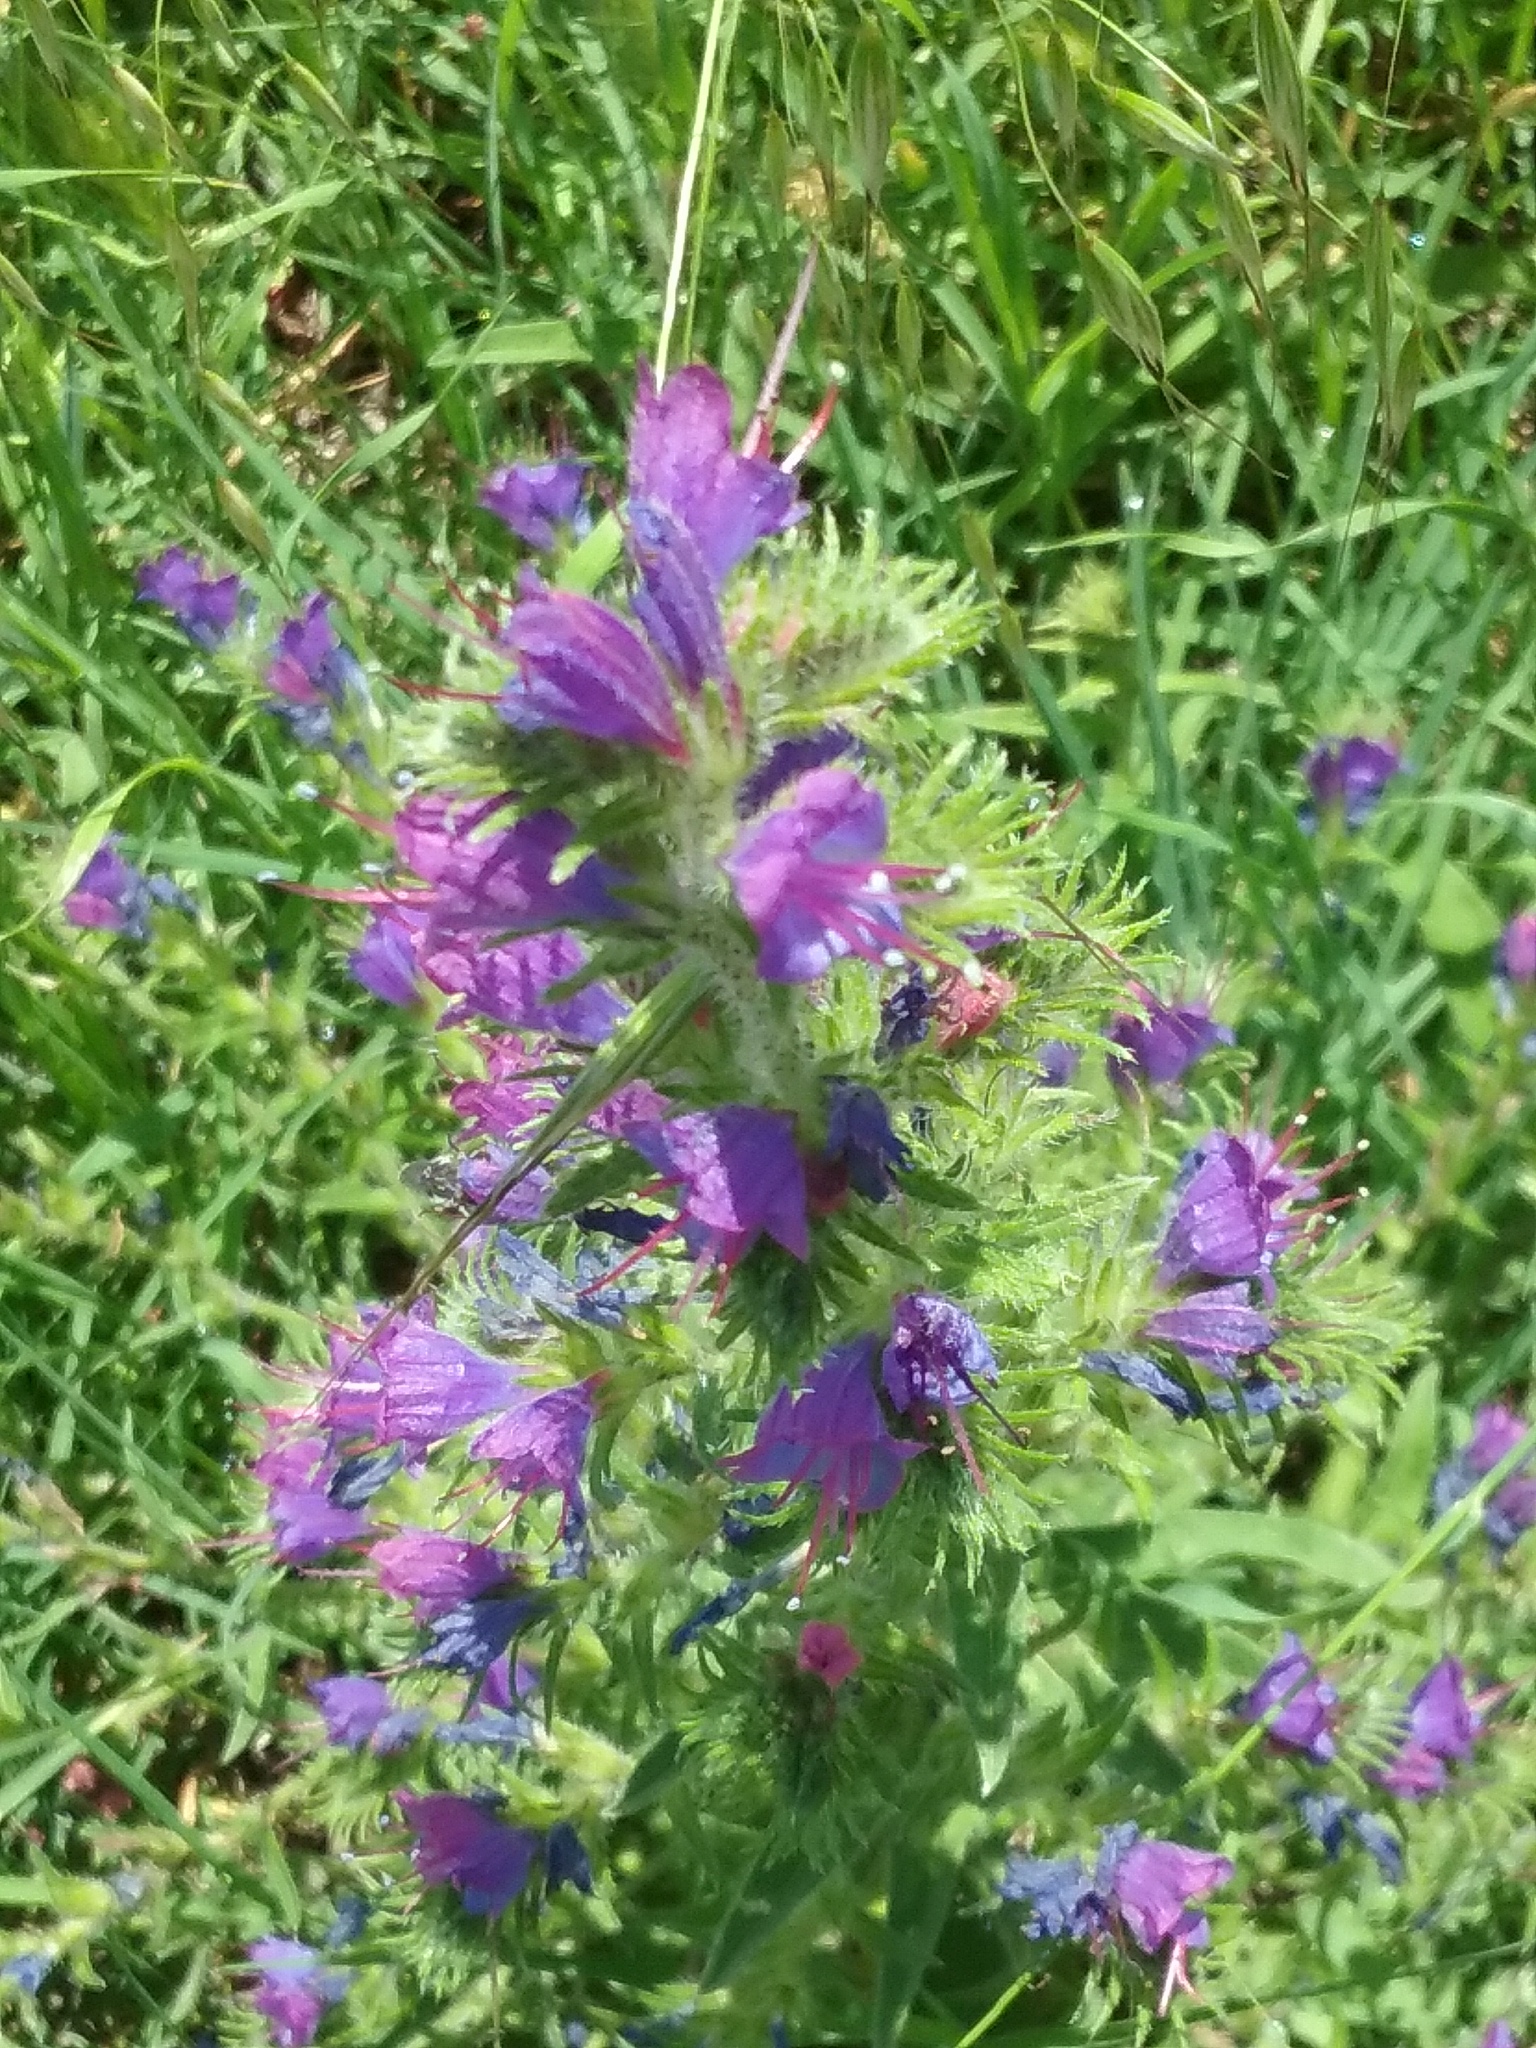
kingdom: Plantae
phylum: Tracheophyta
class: Magnoliopsida
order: Boraginales
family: Boraginaceae
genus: Echium
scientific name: Echium vulgare
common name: Common viper's bugloss
